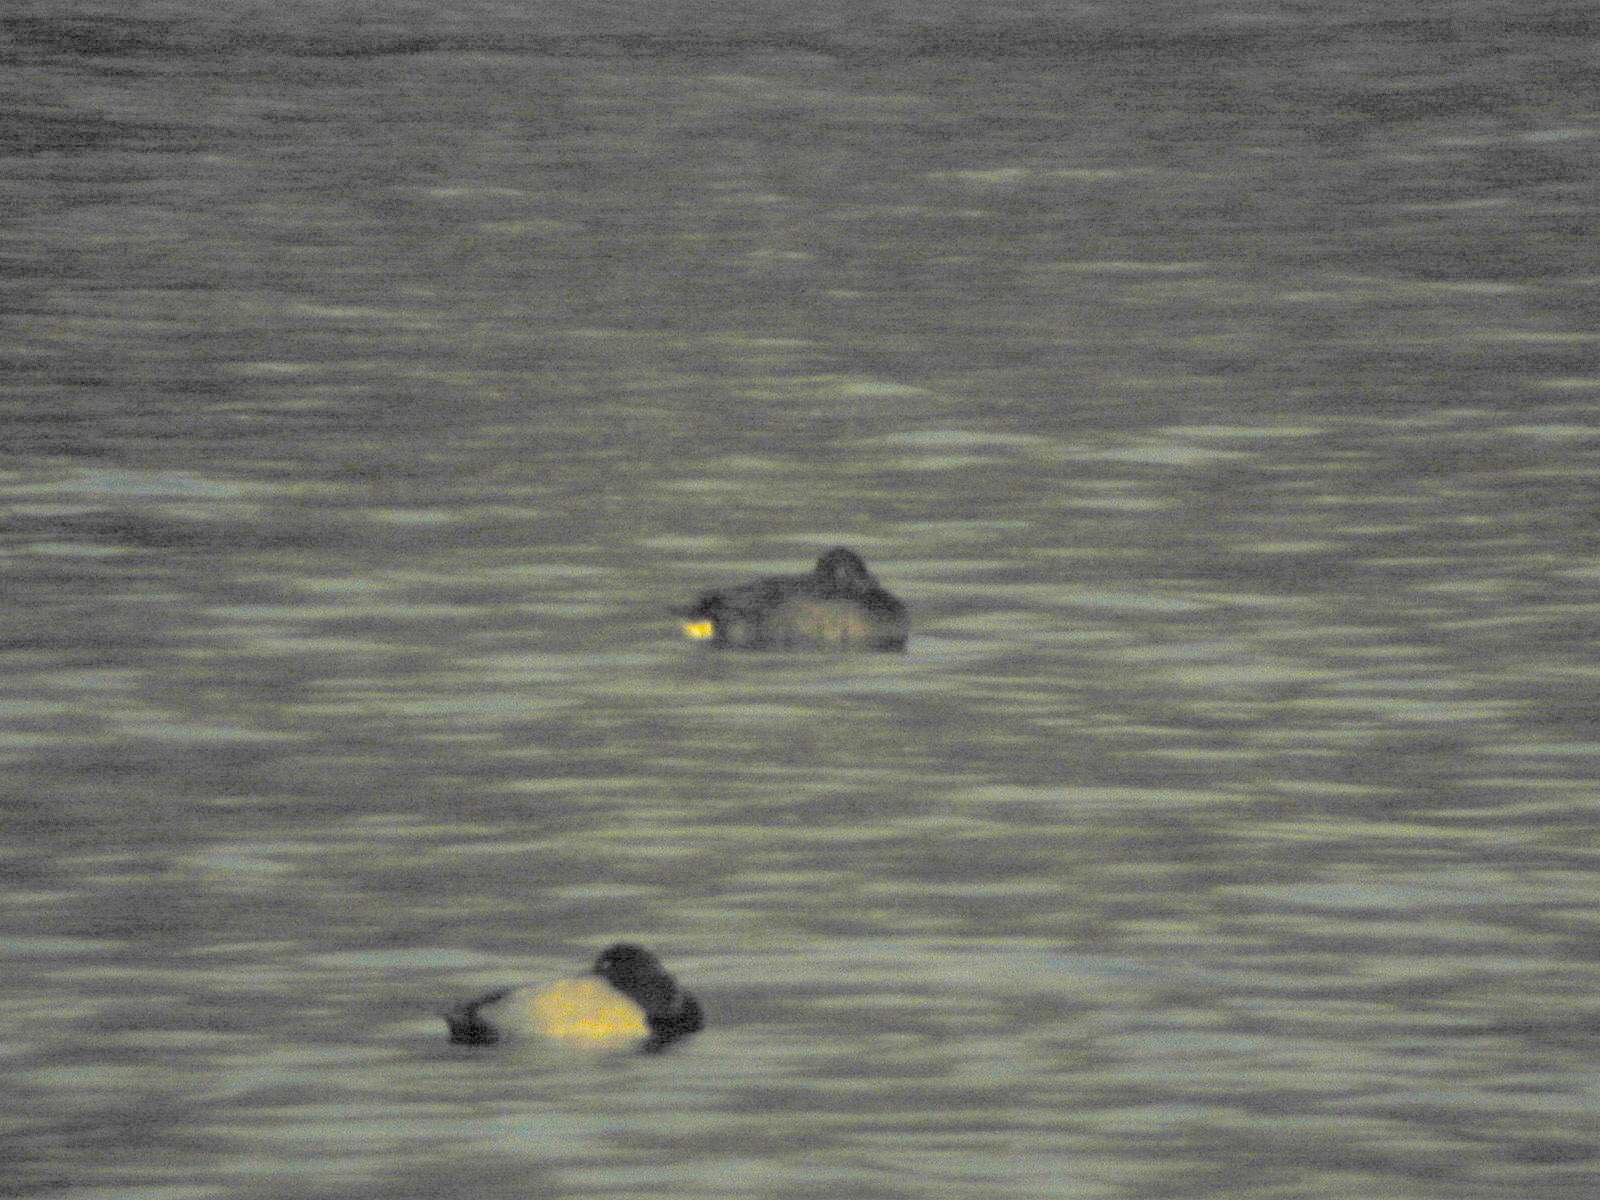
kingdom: Animalia
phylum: Chordata
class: Aves
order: Anseriformes
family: Anatidae
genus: Aythya
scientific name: Aythya nyroca
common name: Ferruginous duck
